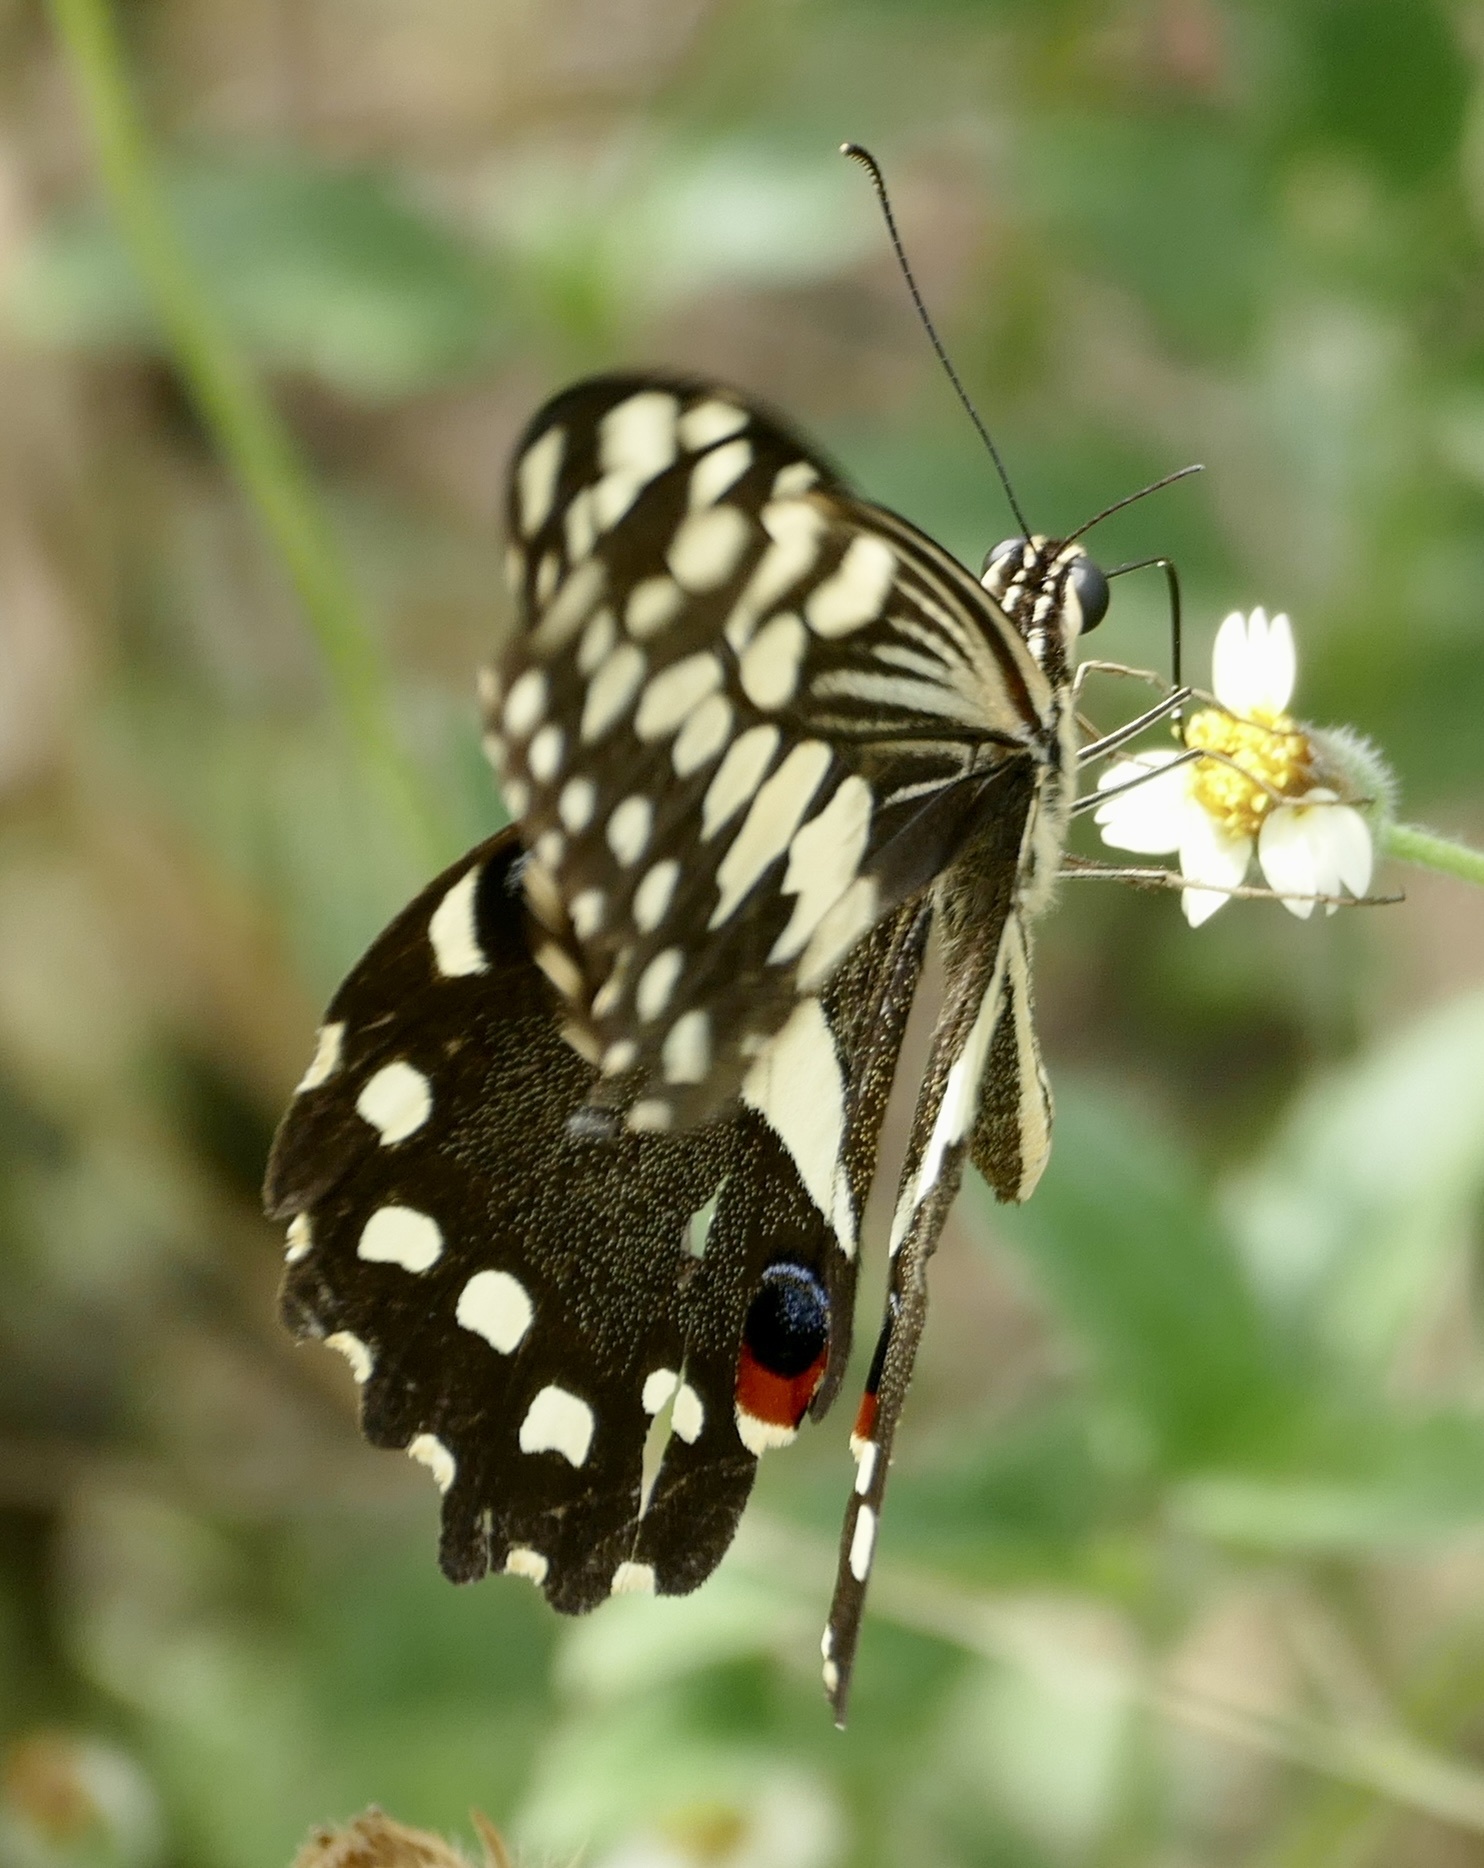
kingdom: Animalia
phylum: Arthropoda
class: Insecta
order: Lepidoptera
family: Papilionidae
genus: Papilio
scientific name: Papilio demodocus
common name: Christmas butterfly
